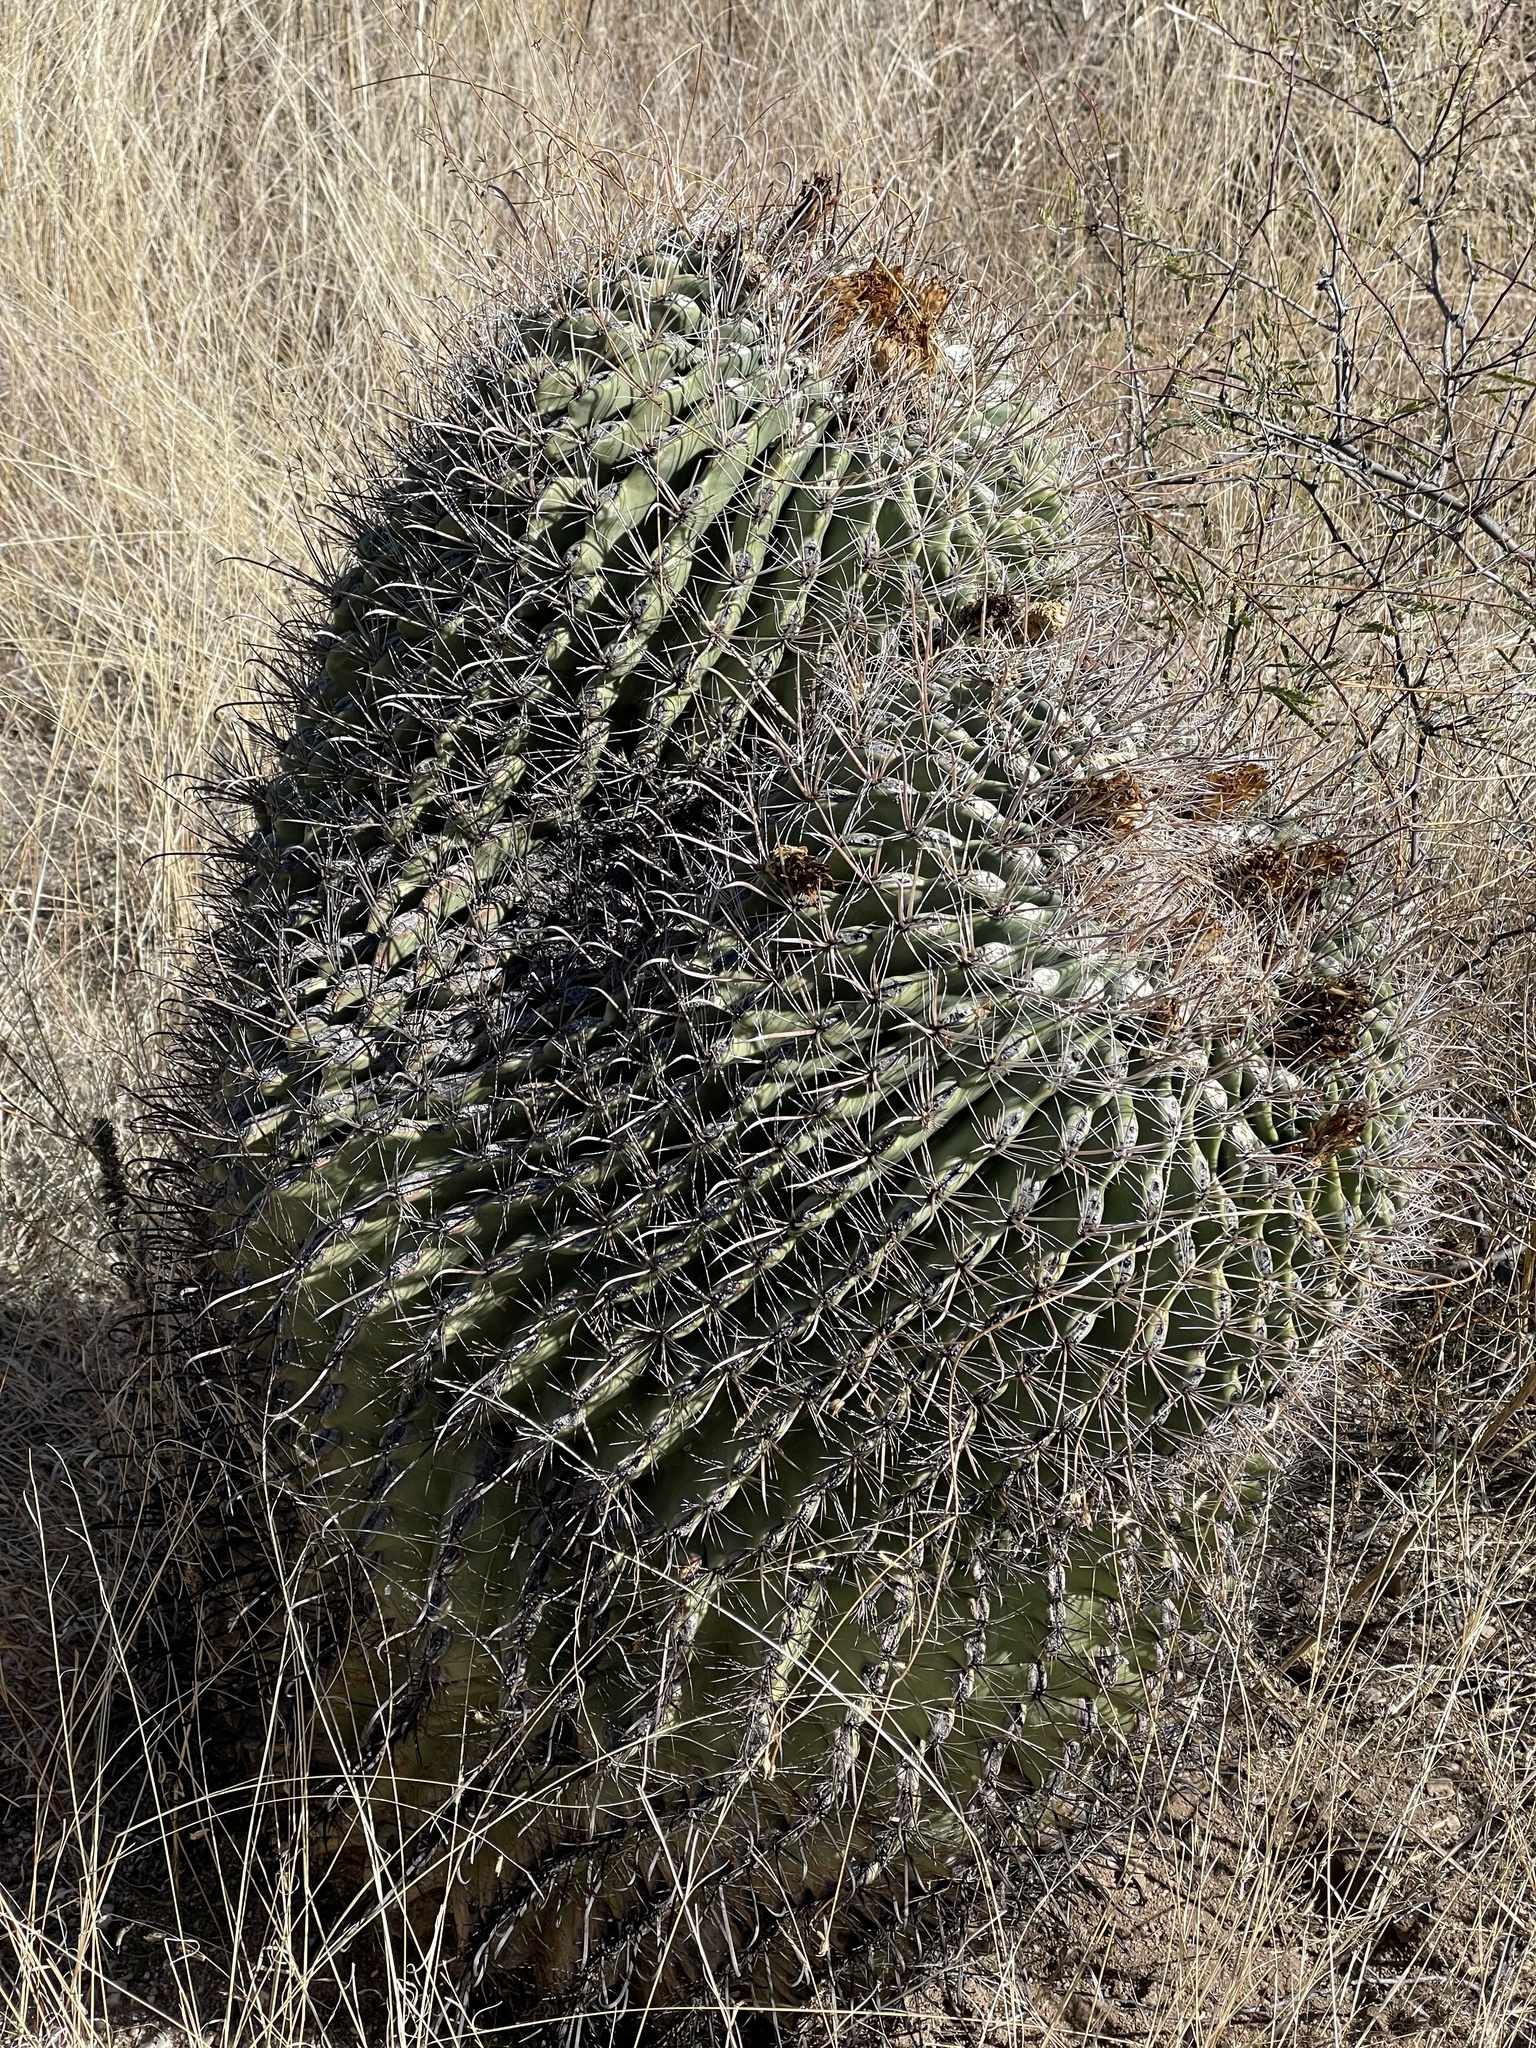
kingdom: Plantae
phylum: Tracheophyta
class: Magnoliopsida
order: Caryophyllales
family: Cactaceae
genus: Ferocactus
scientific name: Ferocactus wislizeni
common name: Candy barrel cactus
